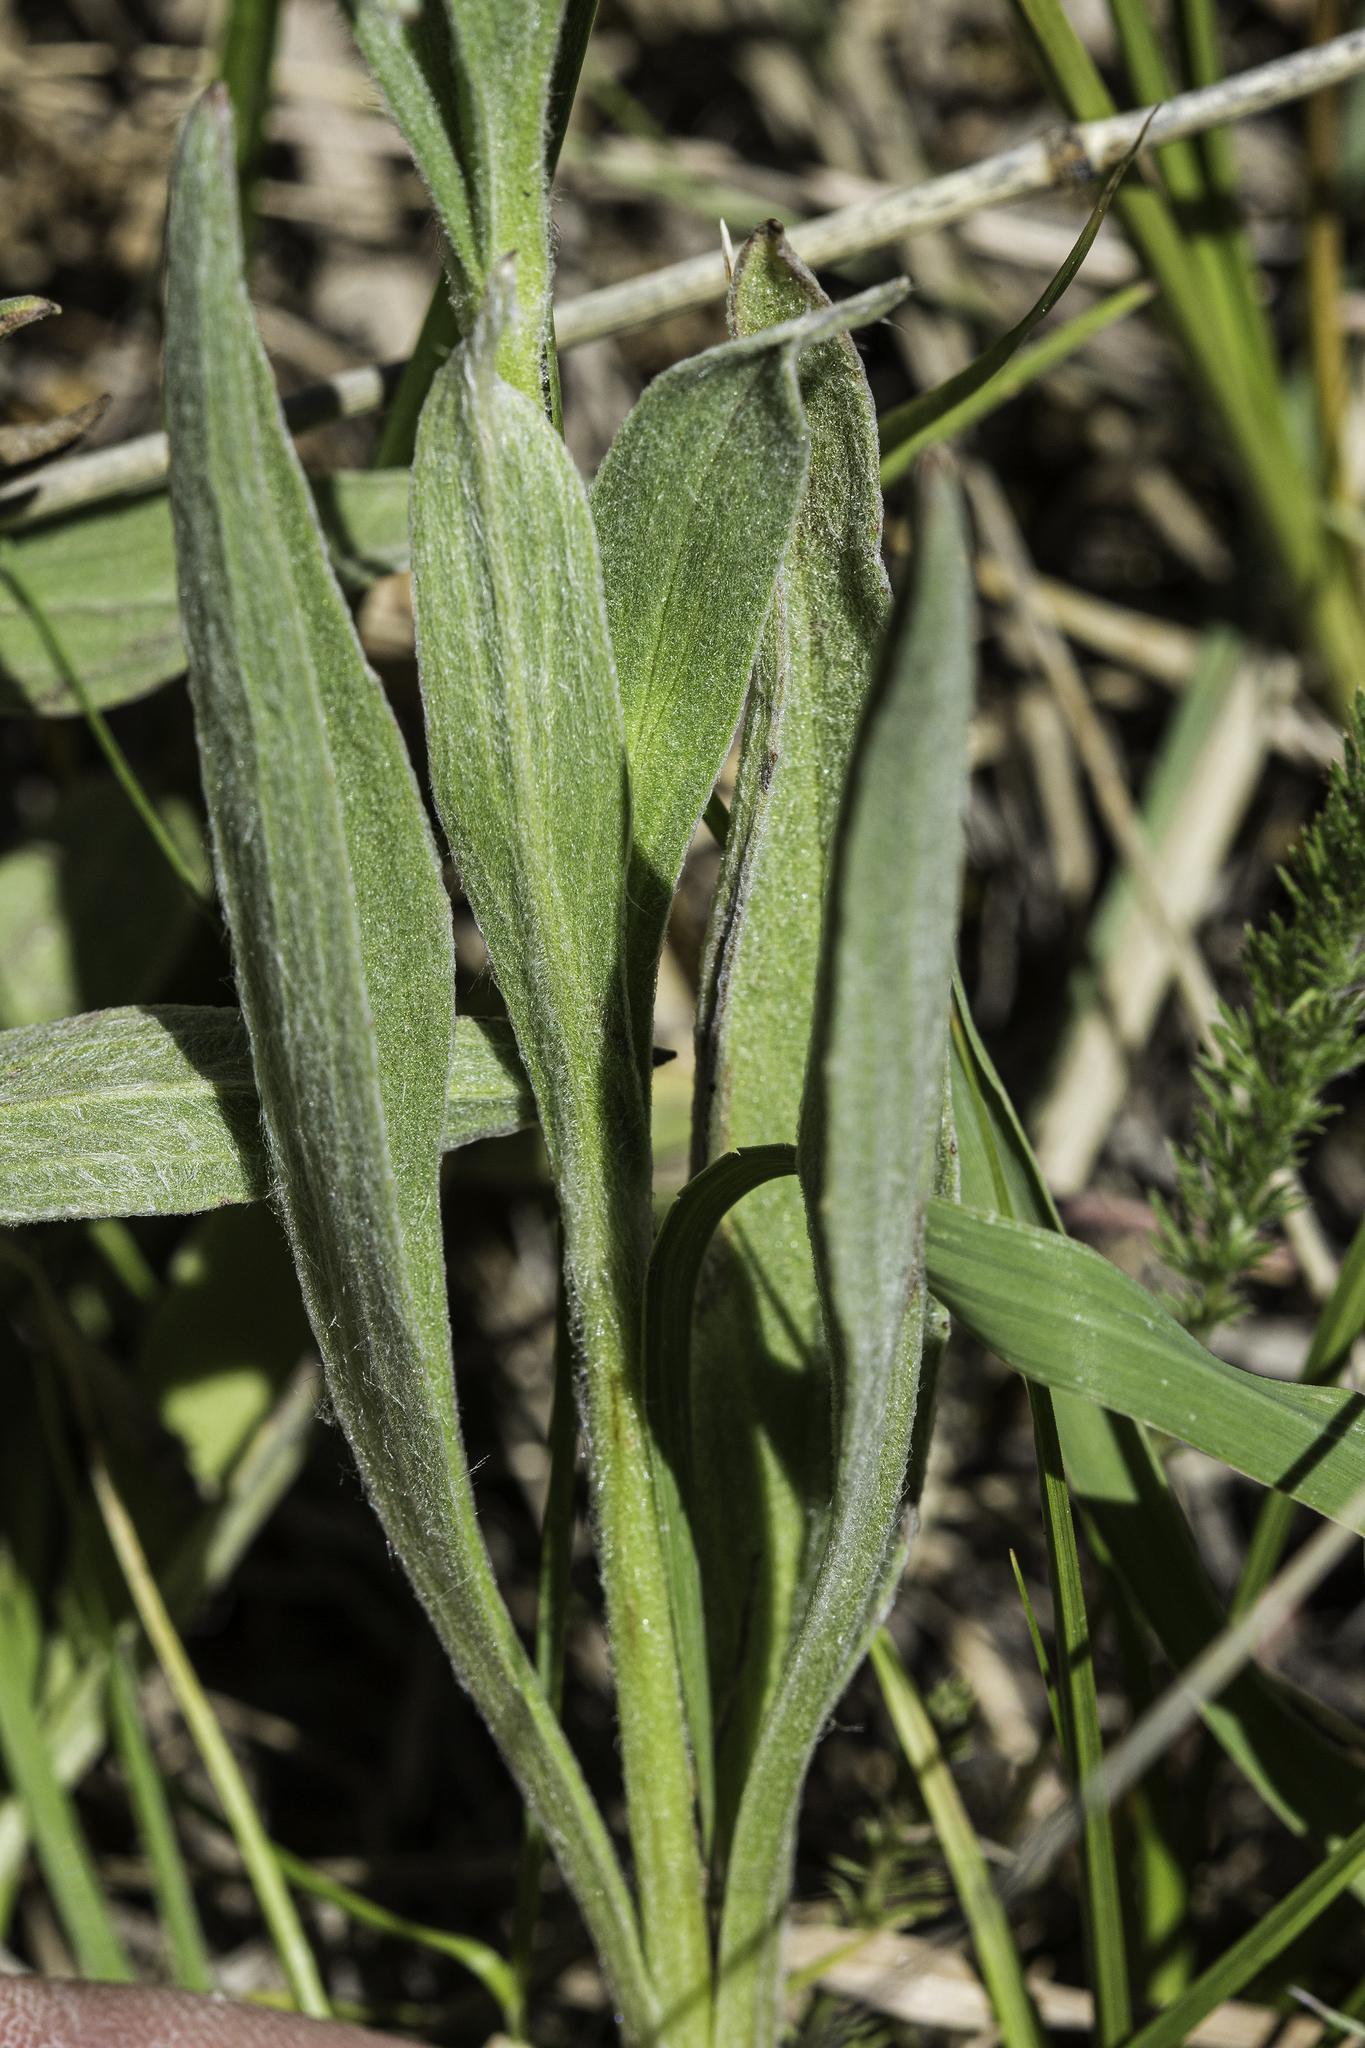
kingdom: Plantae
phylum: Tracheophyta
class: Magnoliopsida
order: Asterales
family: Asteraceae
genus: Arnica
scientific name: Arnica chamissonis
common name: Leafy arnica
